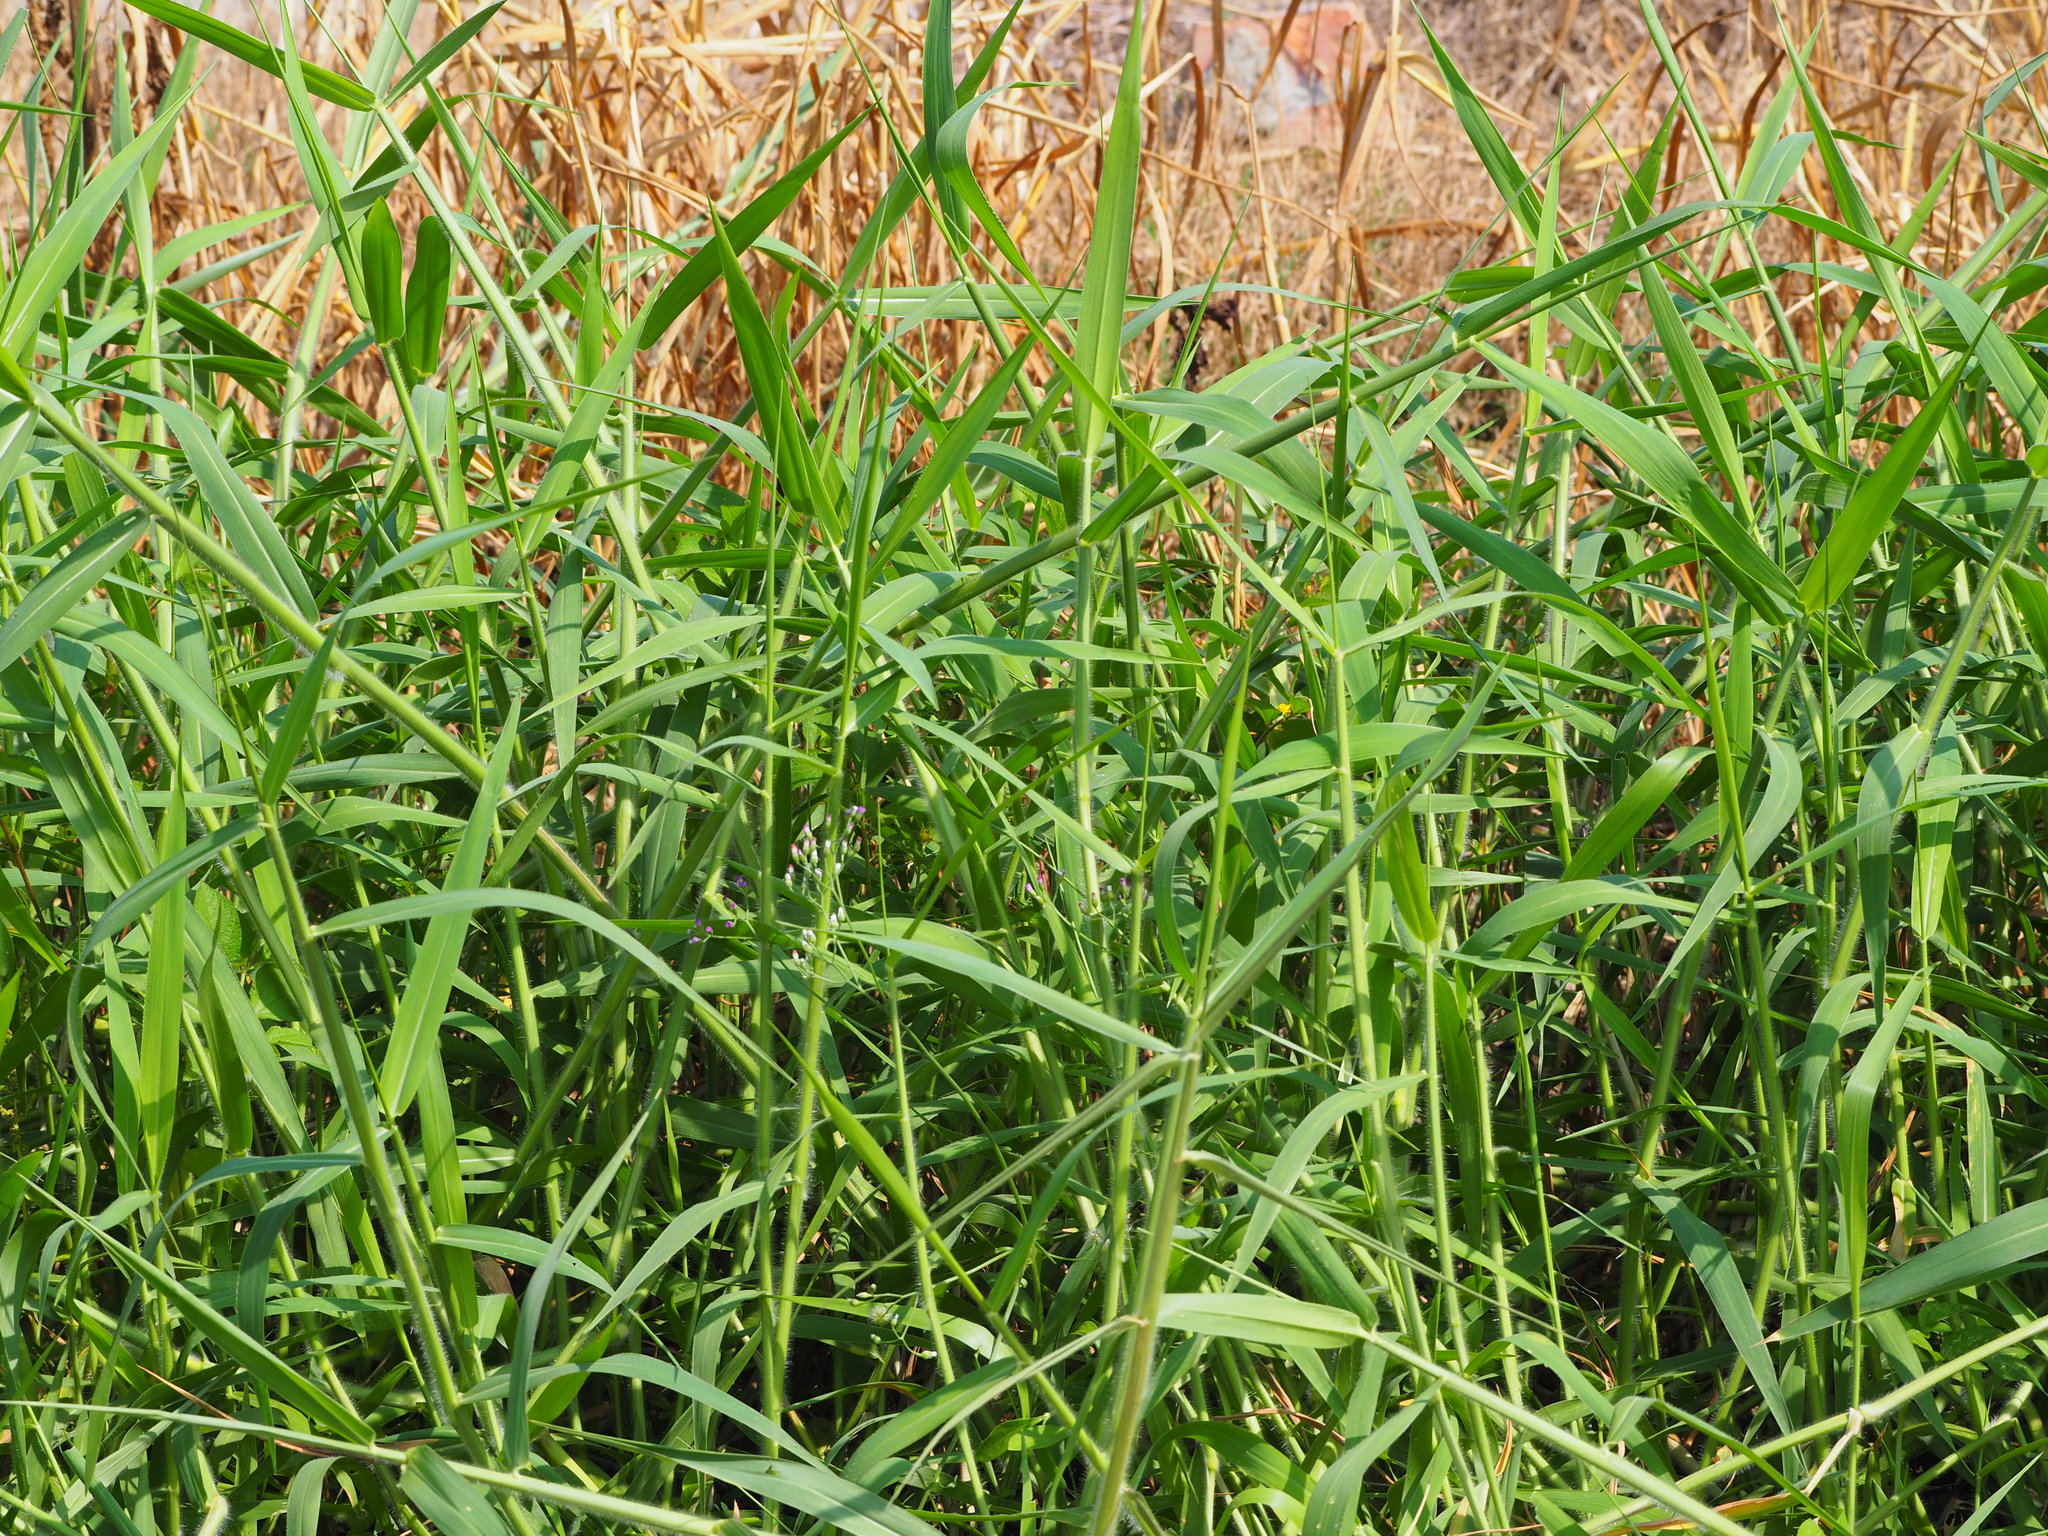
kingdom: Plantae
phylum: Tracheophyta
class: Liliopsida
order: Poales
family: Poaceae
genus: Urochloa
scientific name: Urochloa mutica
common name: Para grass
